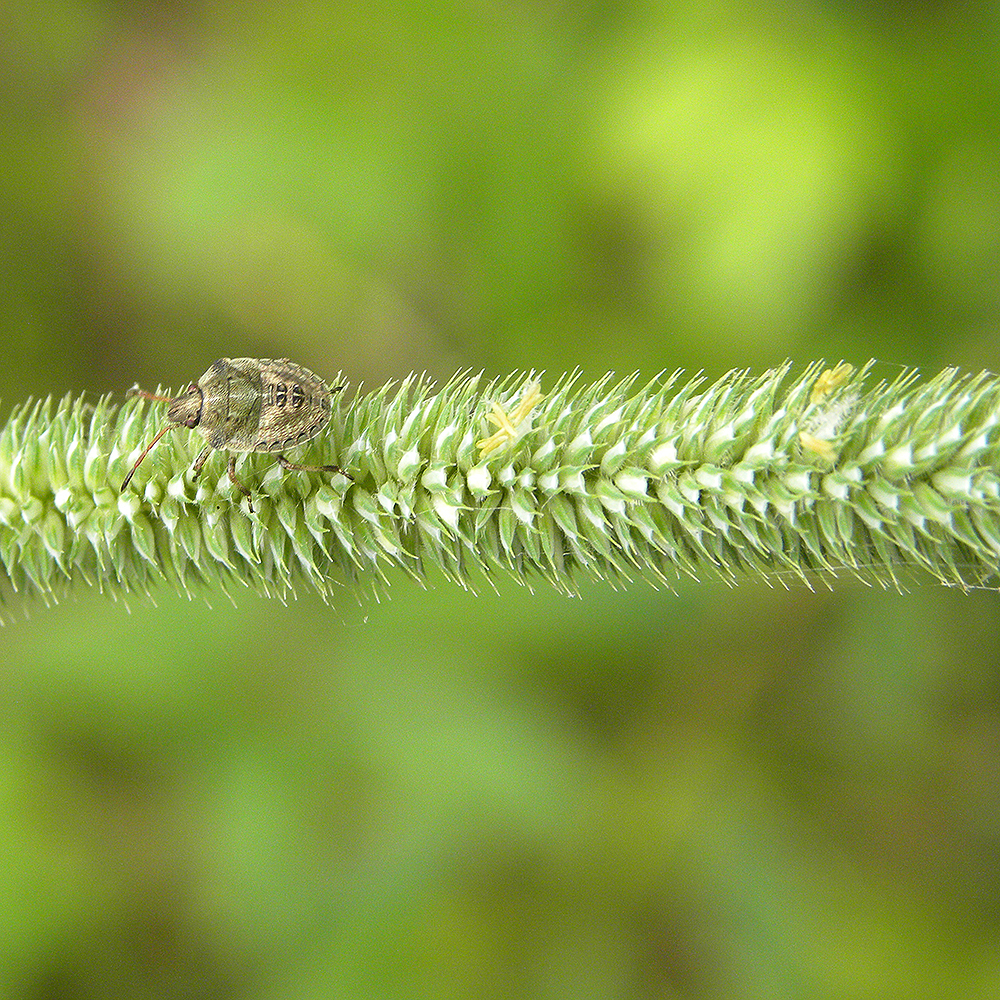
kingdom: Plantae
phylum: Tracheophyta
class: Liliopsida
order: Poales
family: Poaceae
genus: Phleum
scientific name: Phleum pratense
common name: Timothy grass
